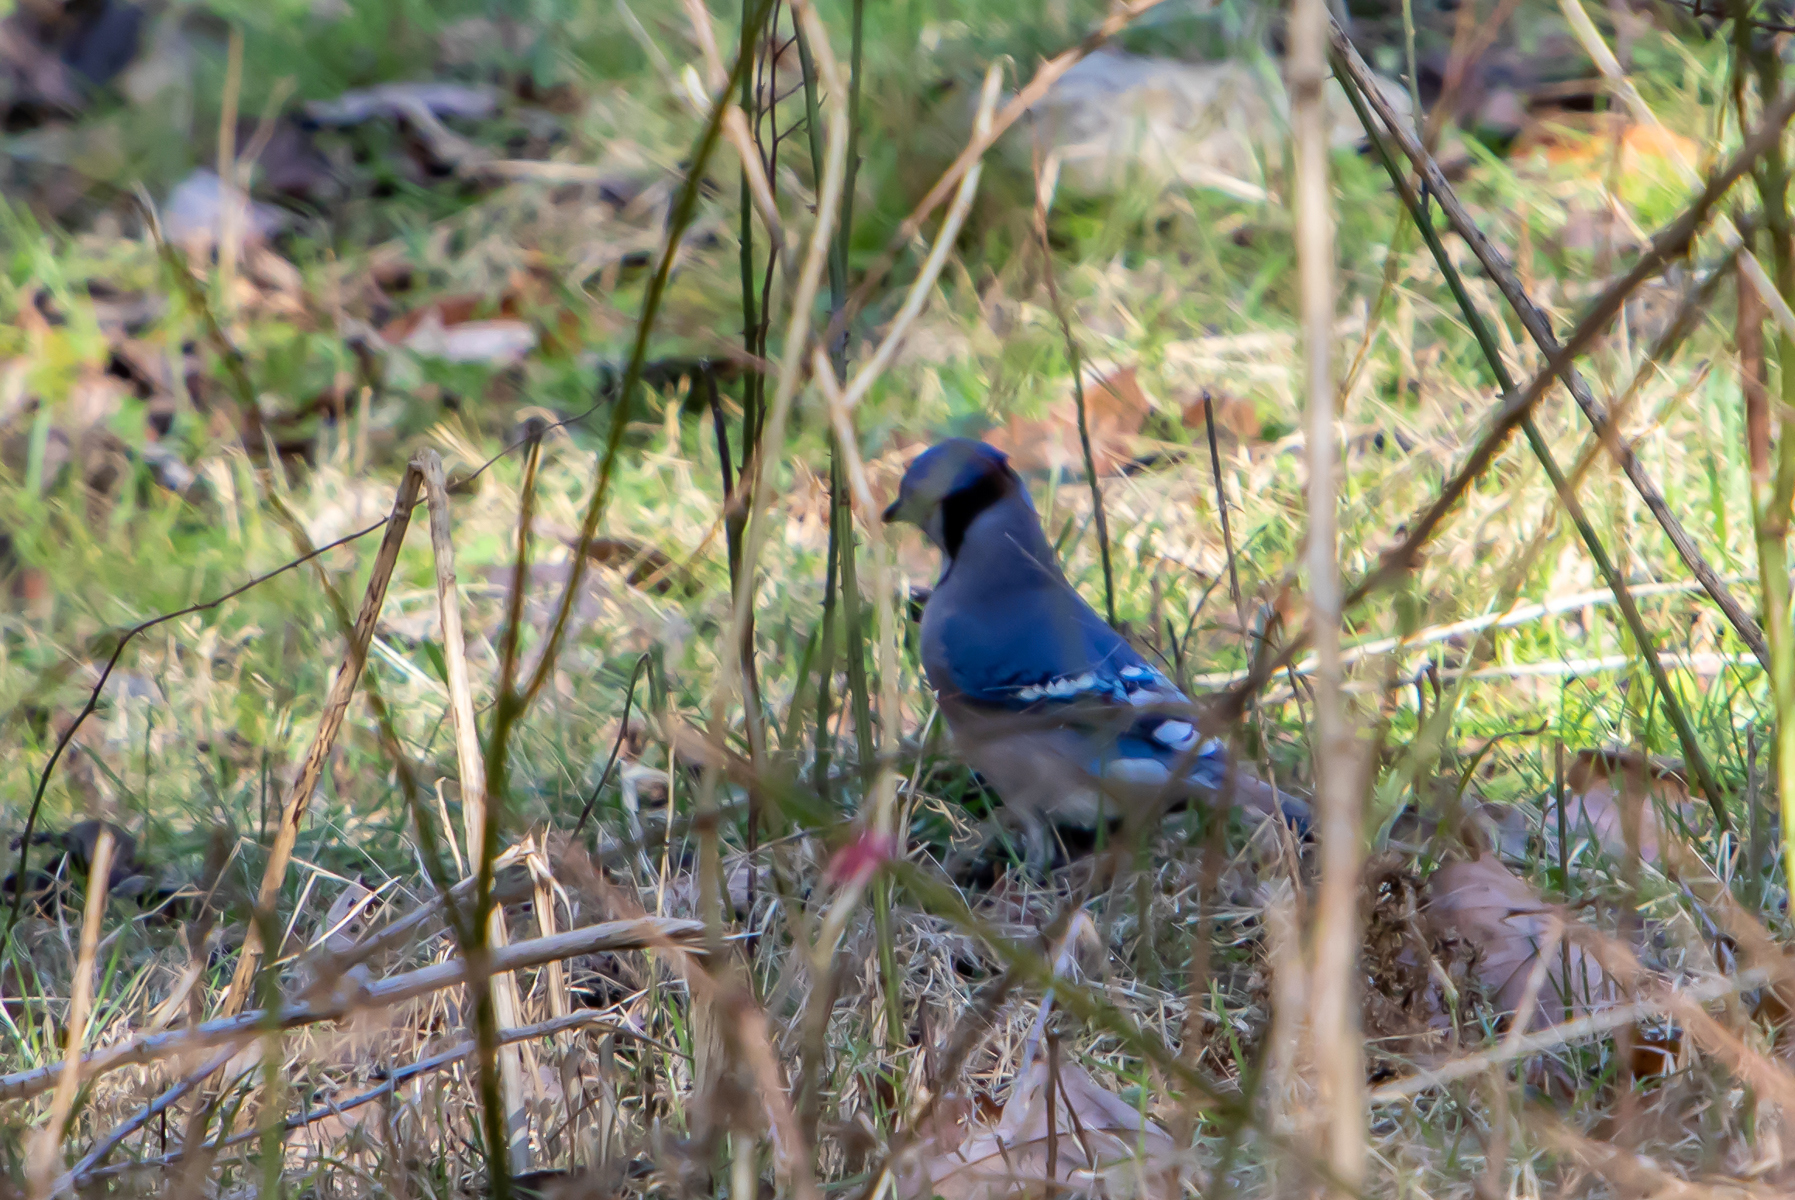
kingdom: Animalia
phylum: Chordata
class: Aves
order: Passeriformes
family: Corvidae
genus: Cyanocitta
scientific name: Cyanocitta cristata
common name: Blue jay
